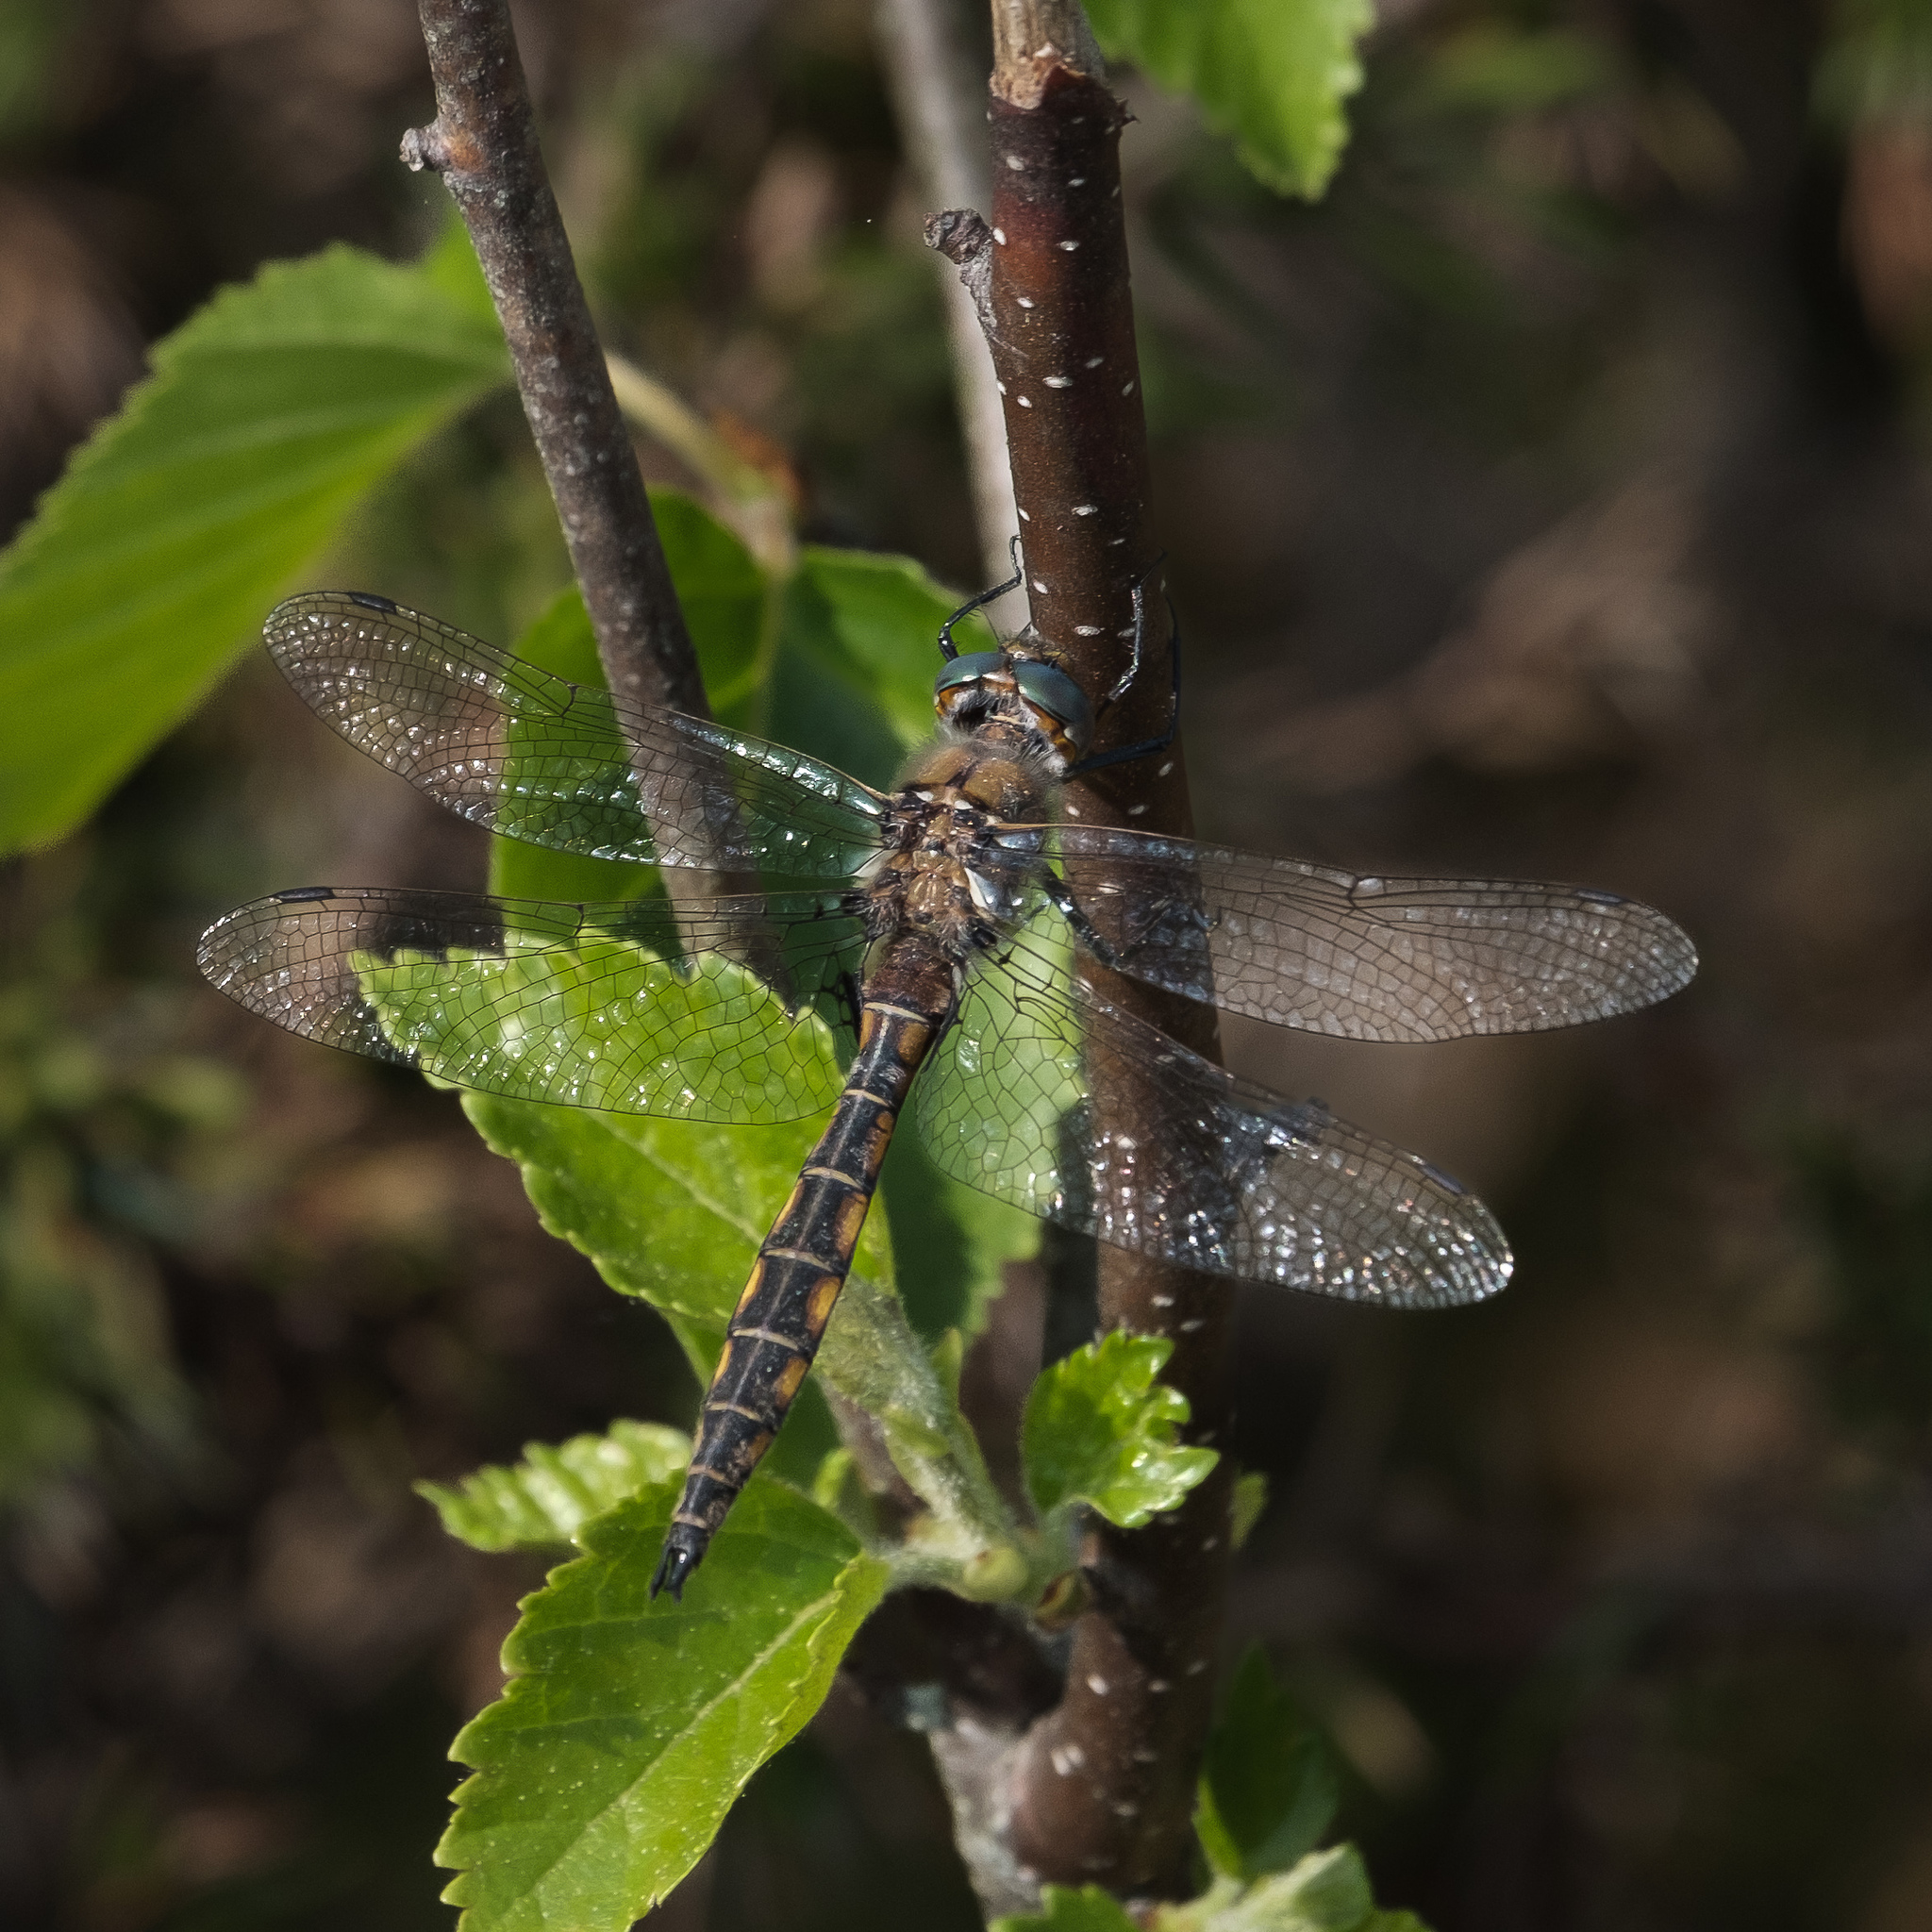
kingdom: Animalia
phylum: Arthropoda
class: Insecta
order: Odonata
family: Corduliidae
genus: Epitheca
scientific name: Epitheca canis
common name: Beaverpond baskettail
